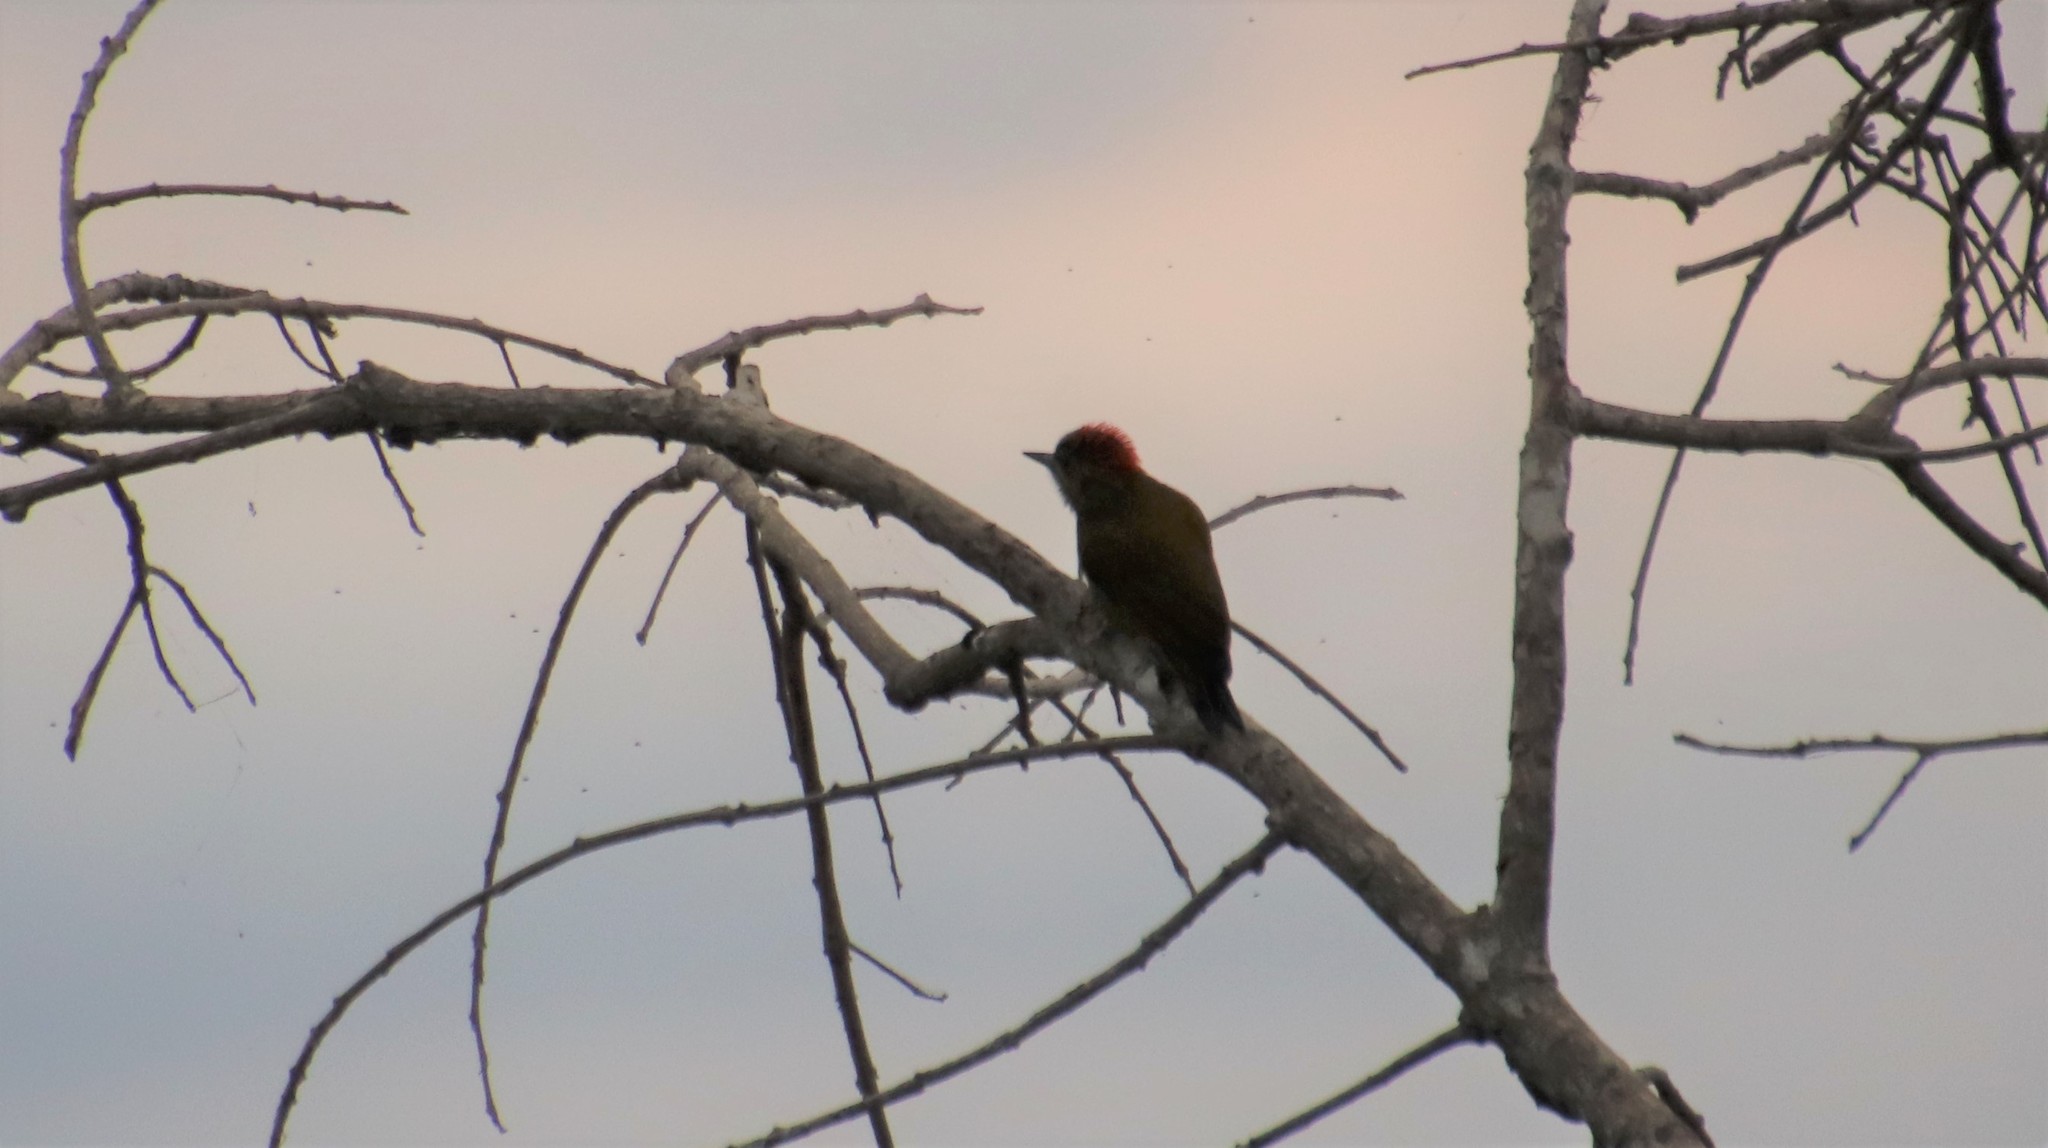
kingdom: Animalia
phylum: Chordata
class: Aves
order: Piciformes
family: Picidae
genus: Veniliornis
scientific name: Veniliornis passerinus
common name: Little woodpecker
